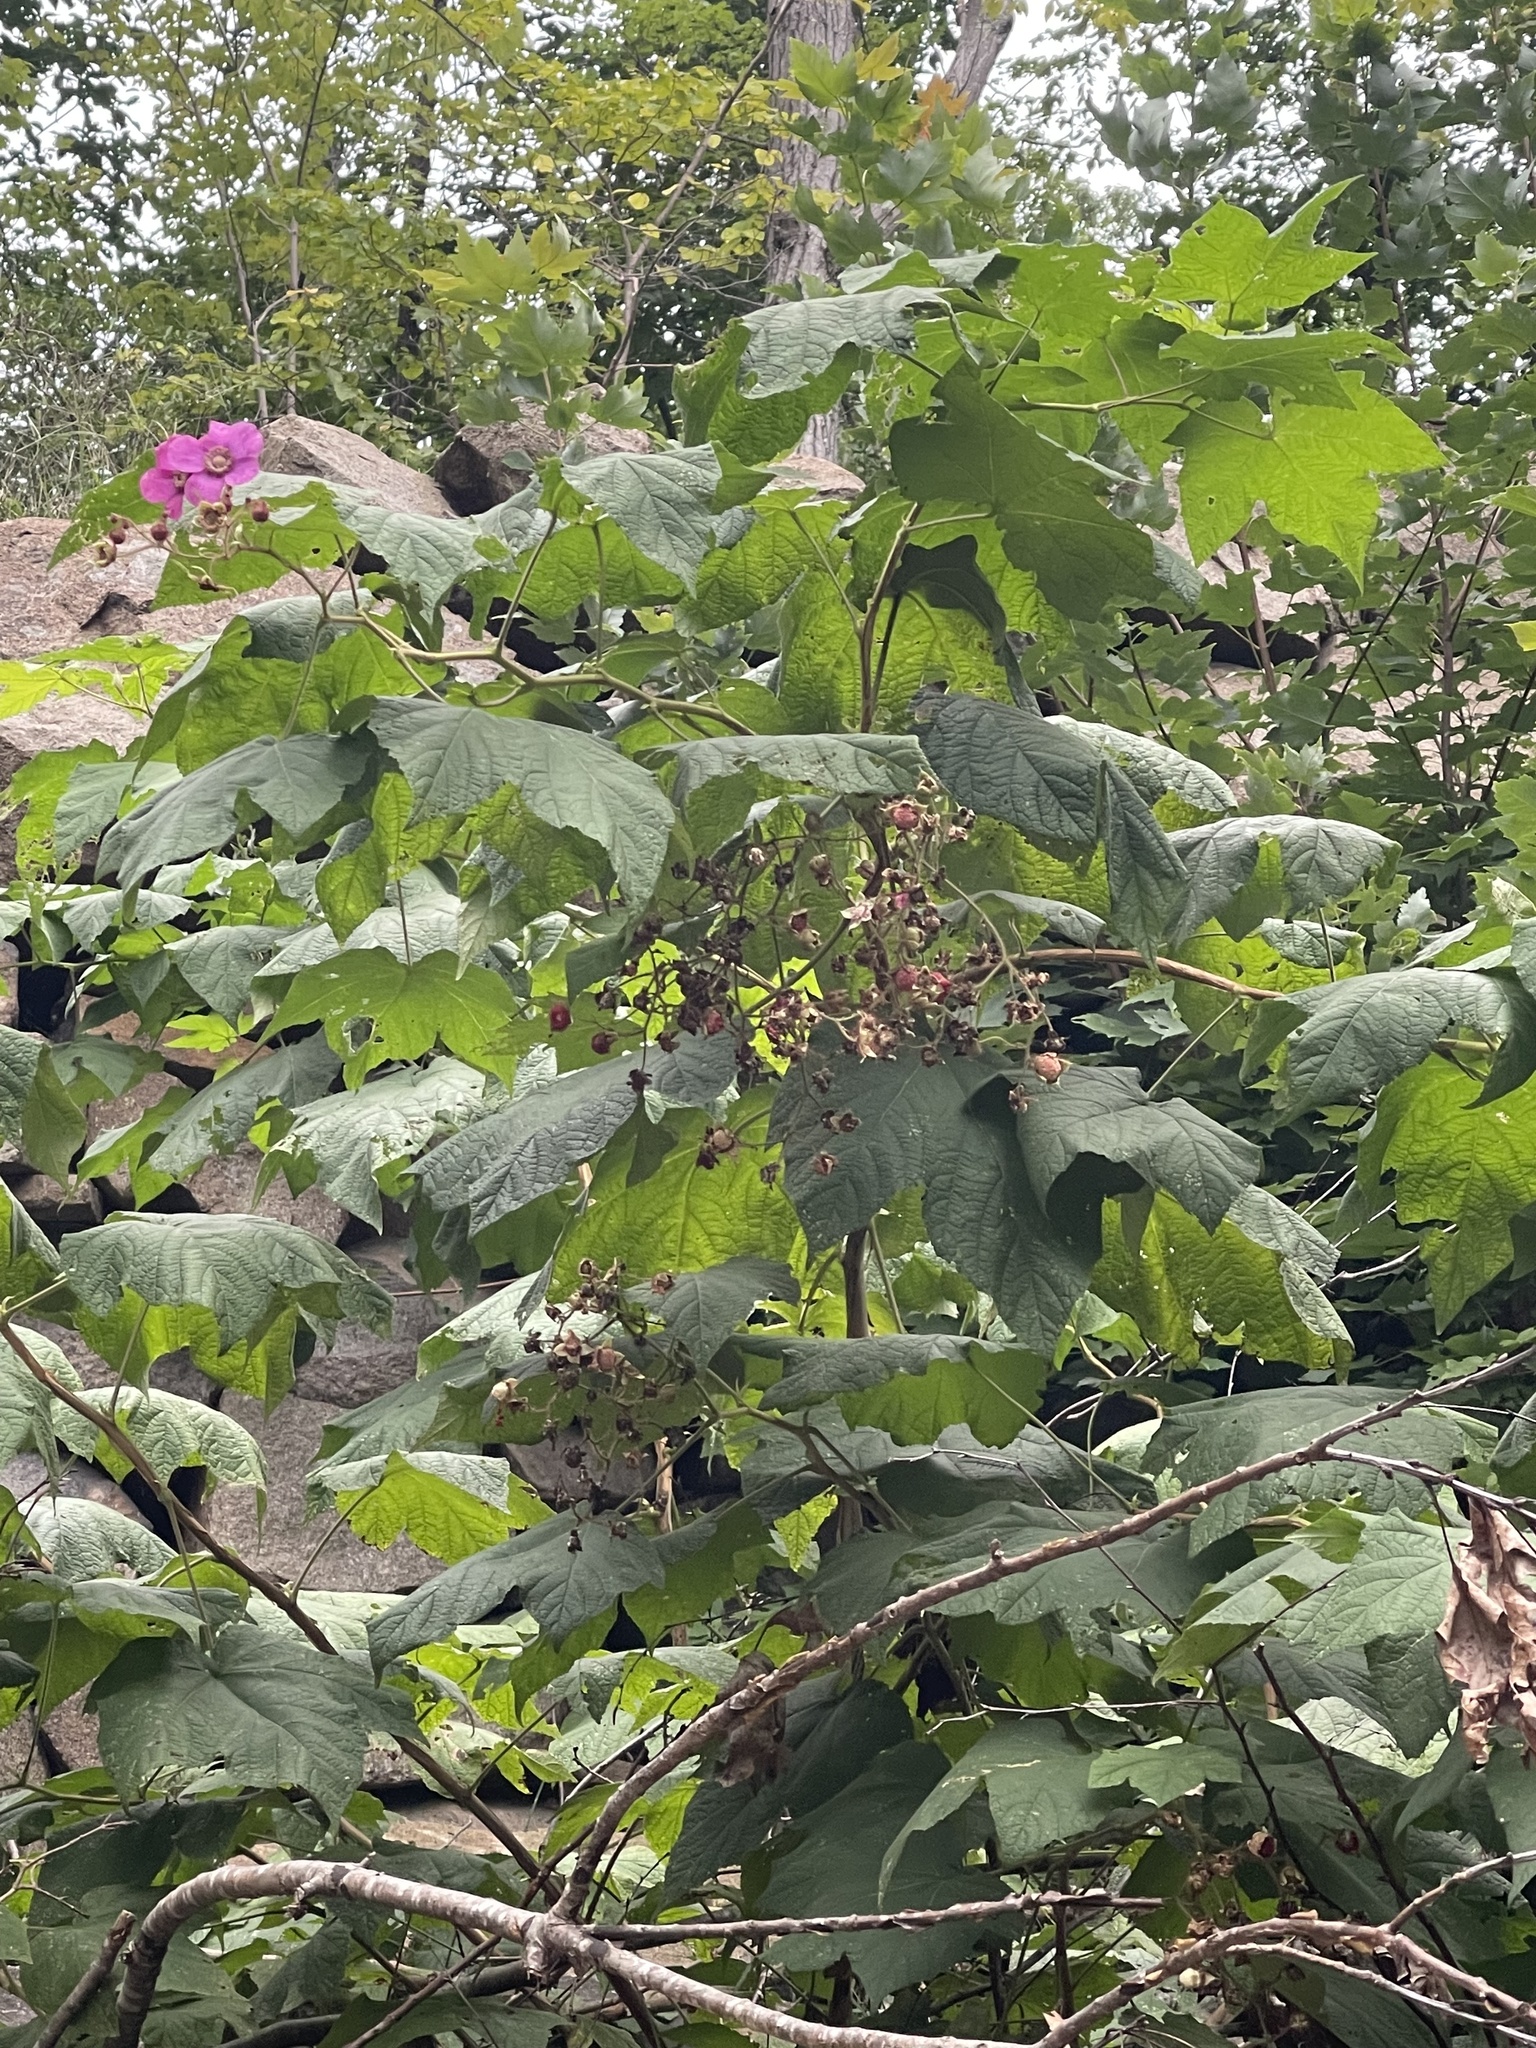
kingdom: Plantae
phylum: Tracheophyta
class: Magnoliopsida
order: Rosales
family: Rosaceae
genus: Rubus
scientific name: Rubus odoratus
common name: Purple-flowered raspberry
